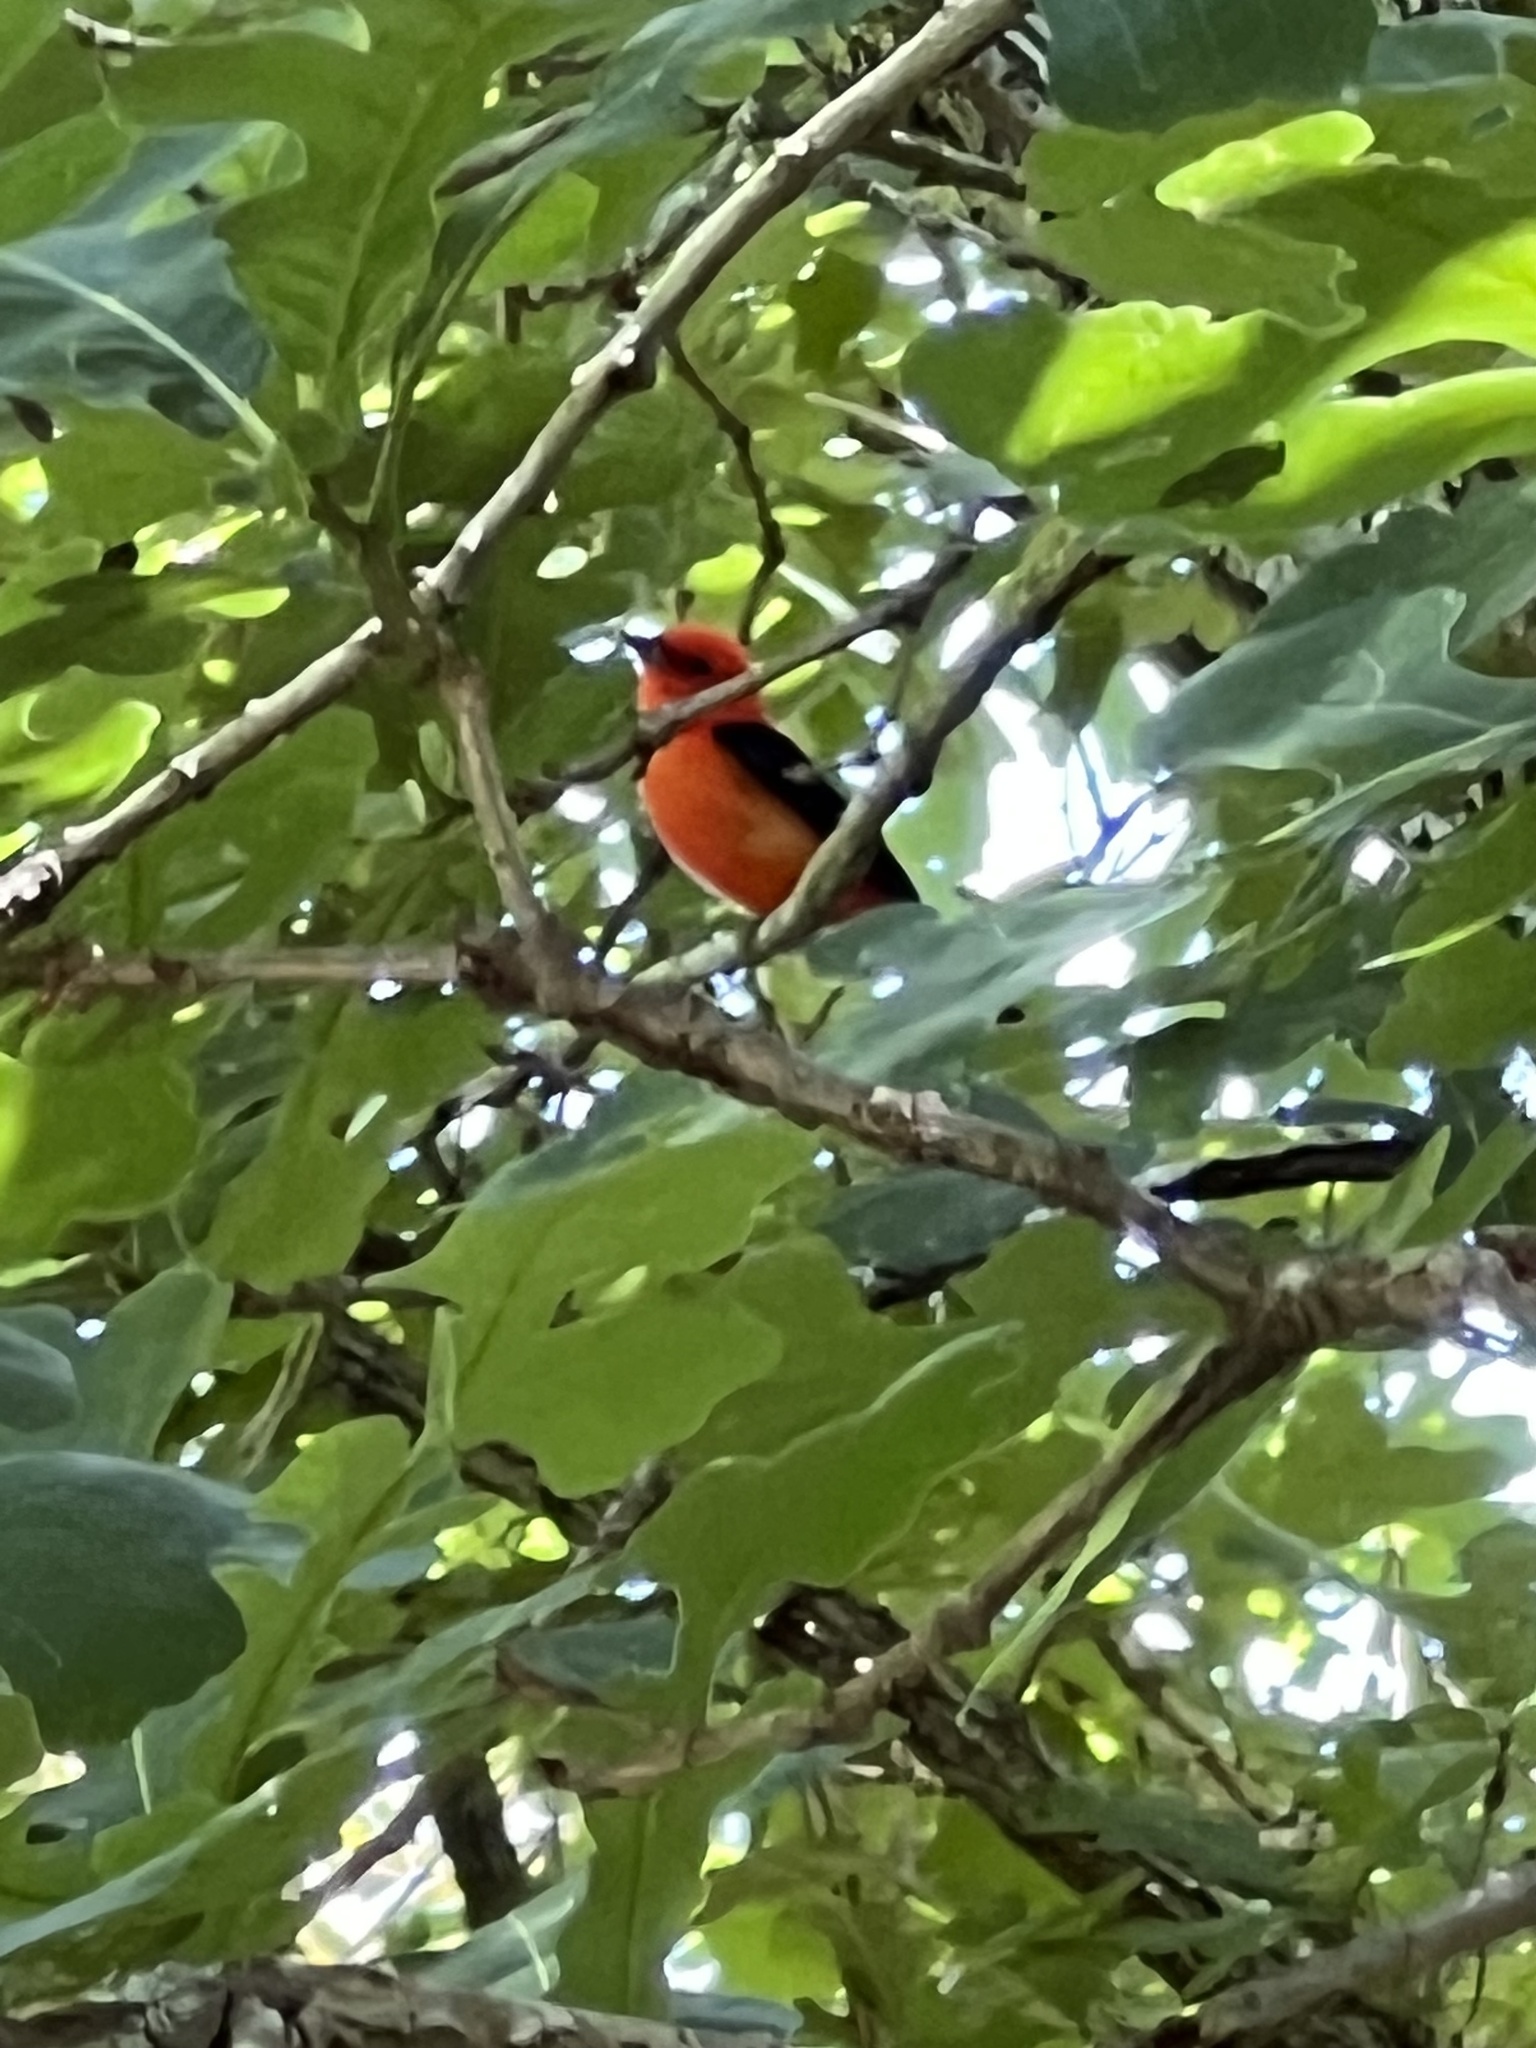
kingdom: Animalia
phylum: Chordata
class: Aves
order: Passeriformes
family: Cardinalidae
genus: Piranga
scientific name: Piranga olivacea
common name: Scarlet tanager
